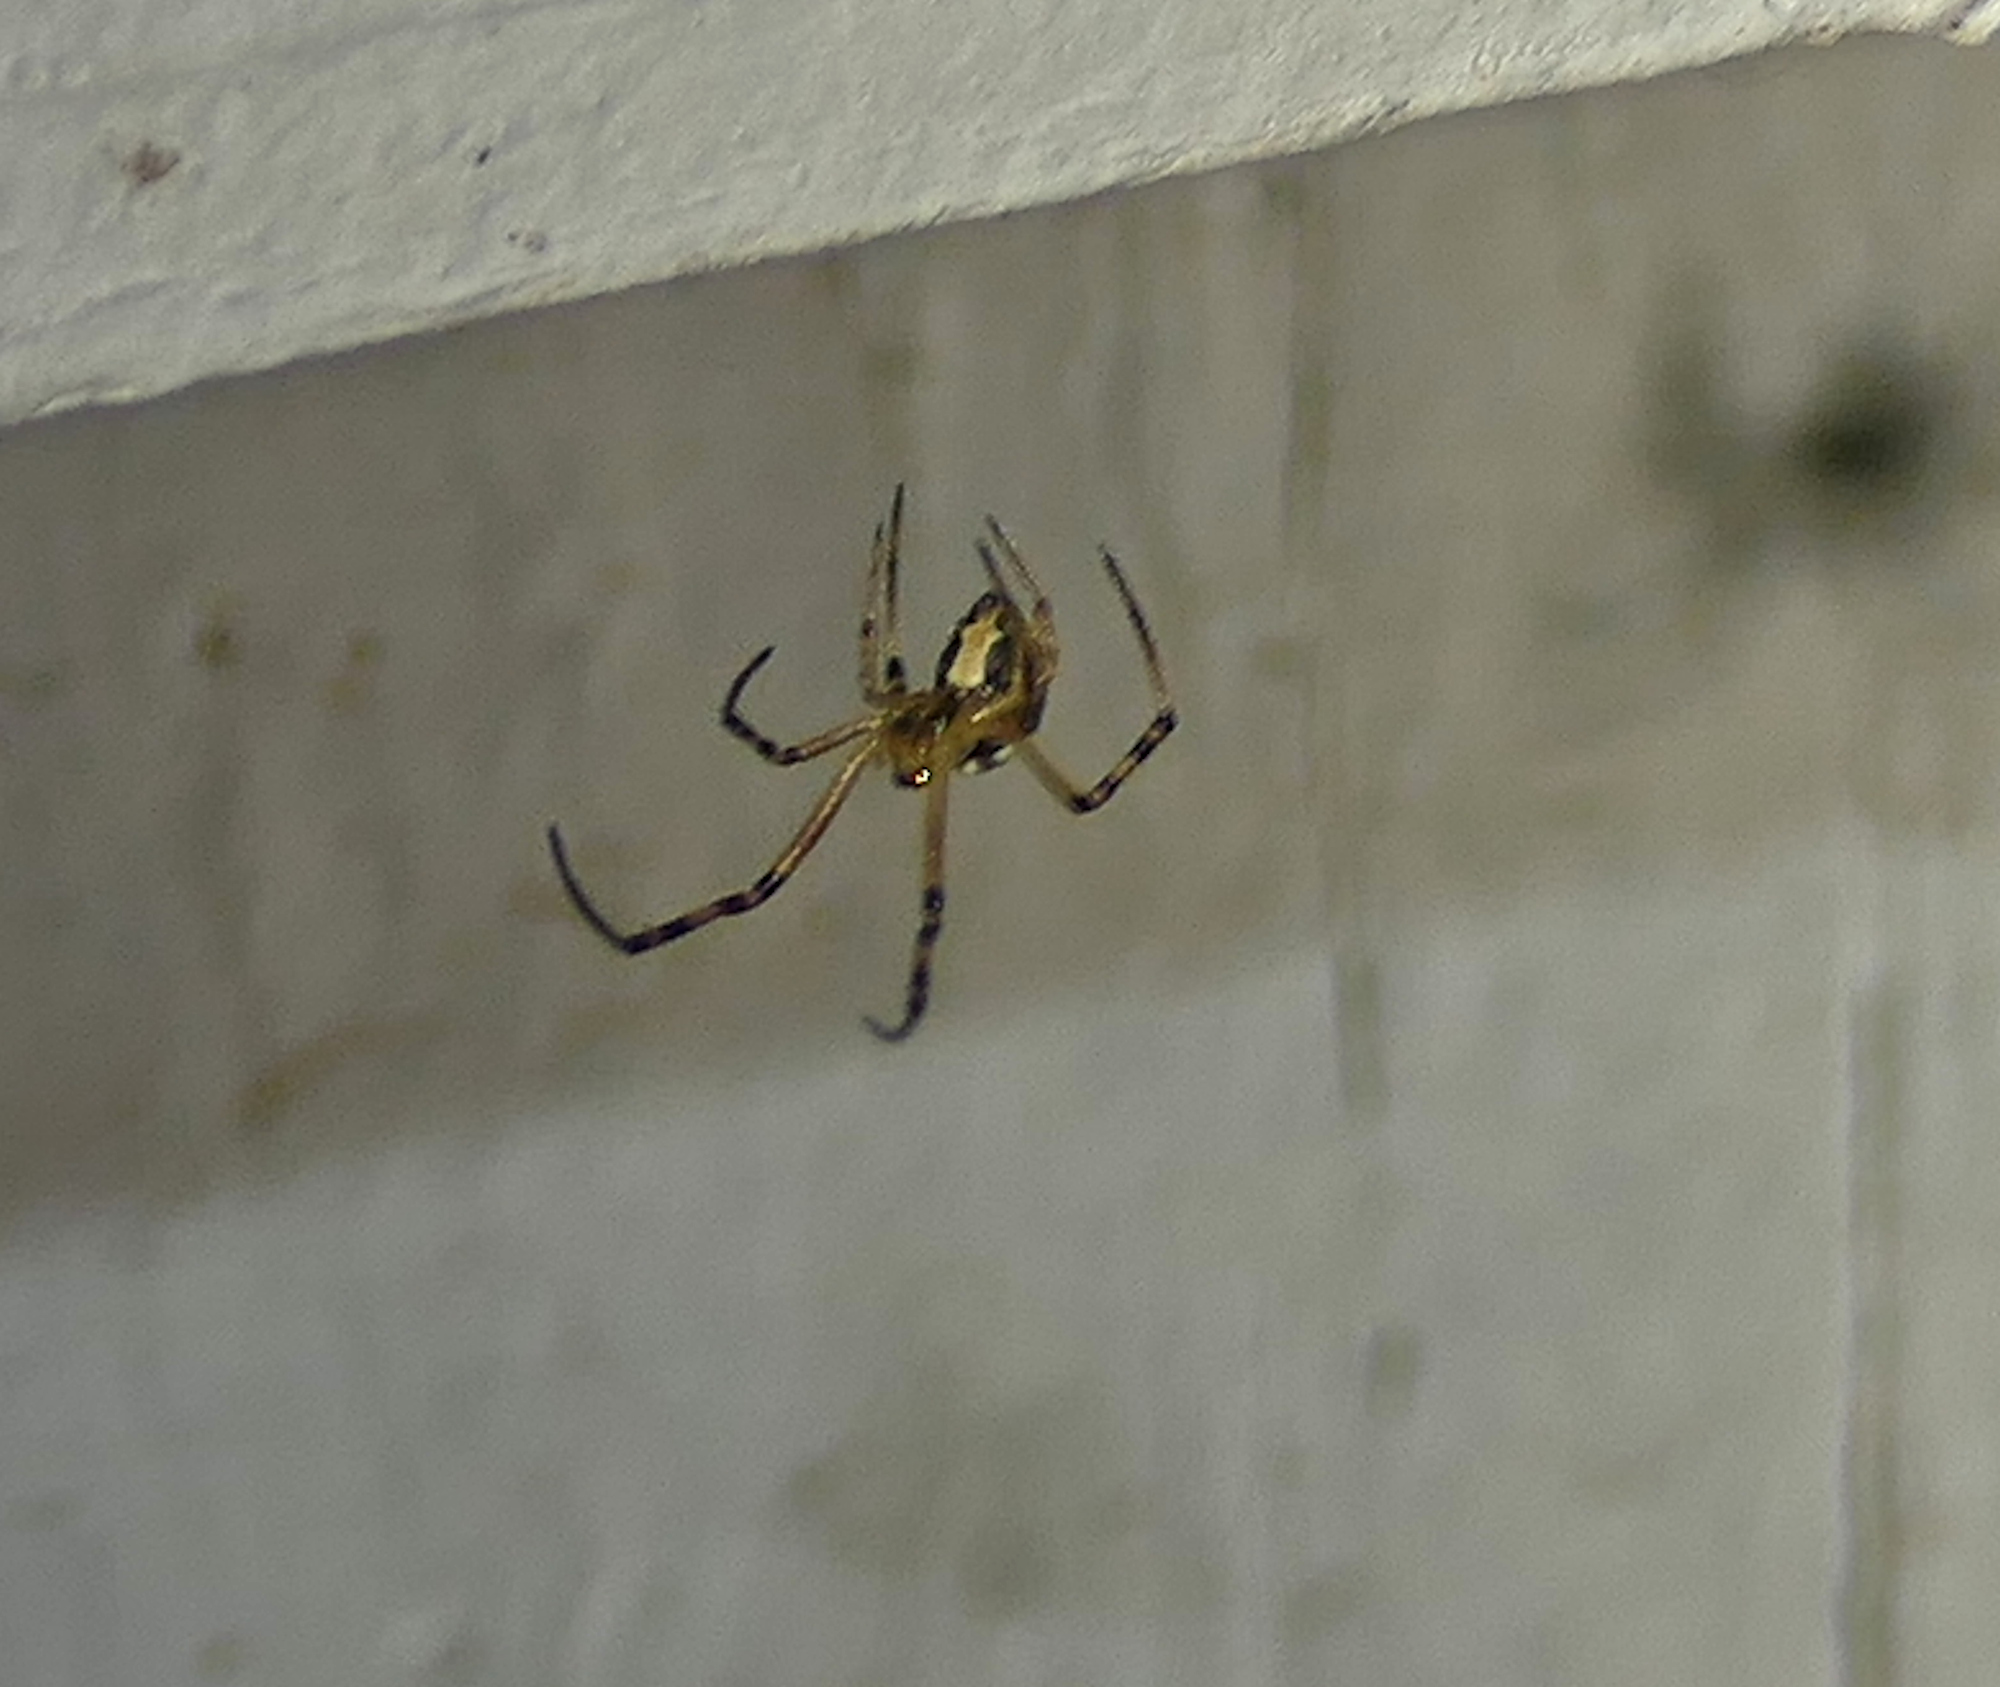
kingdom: Animalia
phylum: Arthropoda
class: Arachnida
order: Araneae
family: Theridiidae
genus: Latrodectus
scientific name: Latrodectus hesperus
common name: Western black widow
